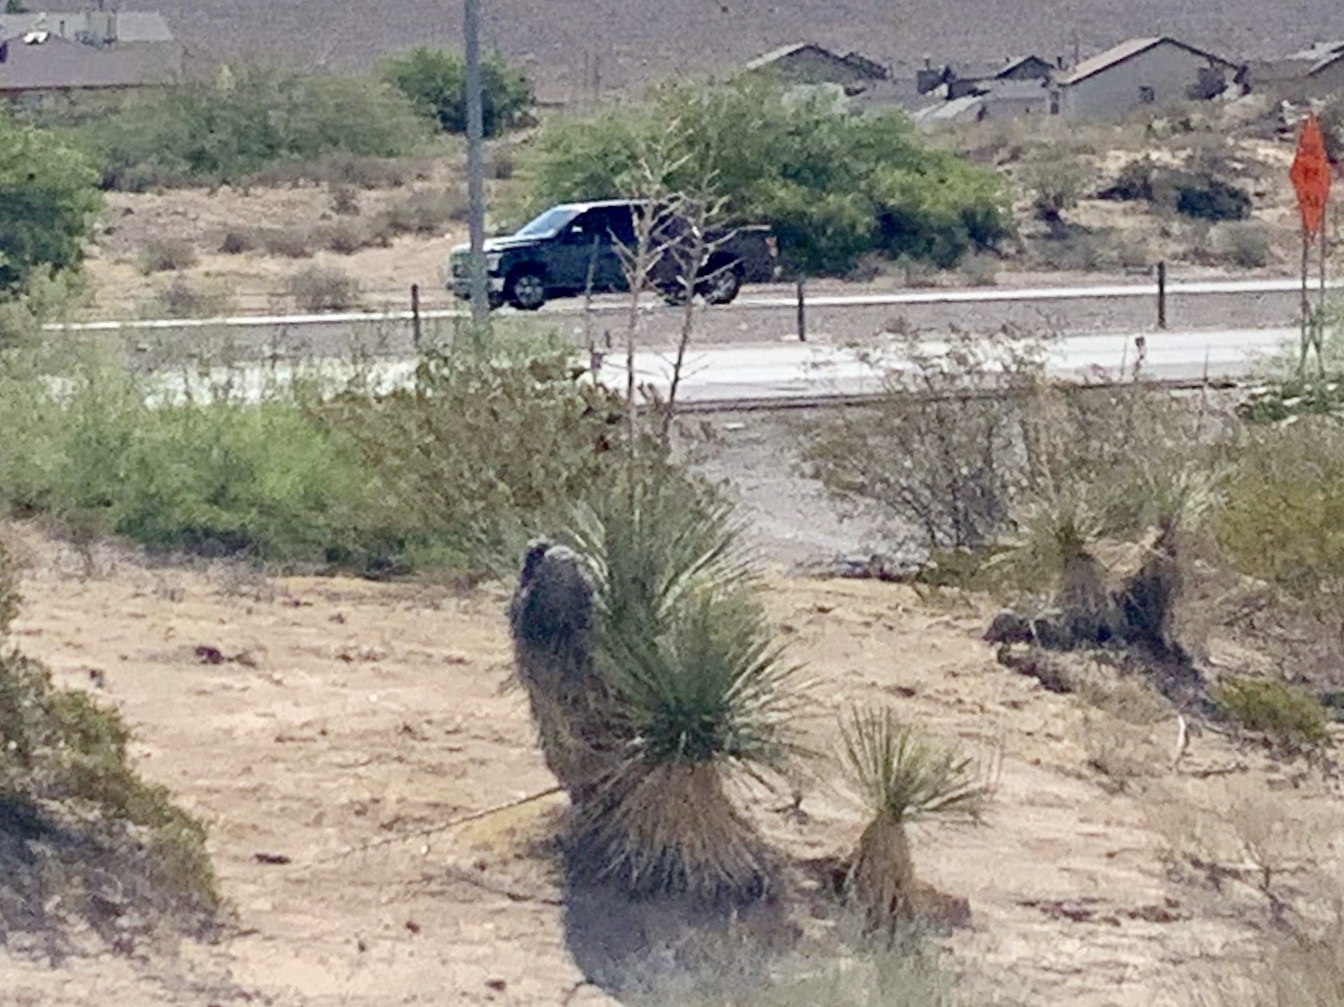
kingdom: Plantae
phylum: Tracheophyta
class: Liliopsida
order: Asparagales
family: Asparagaceae
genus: Yucca
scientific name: Yucca elata
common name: Palmella
